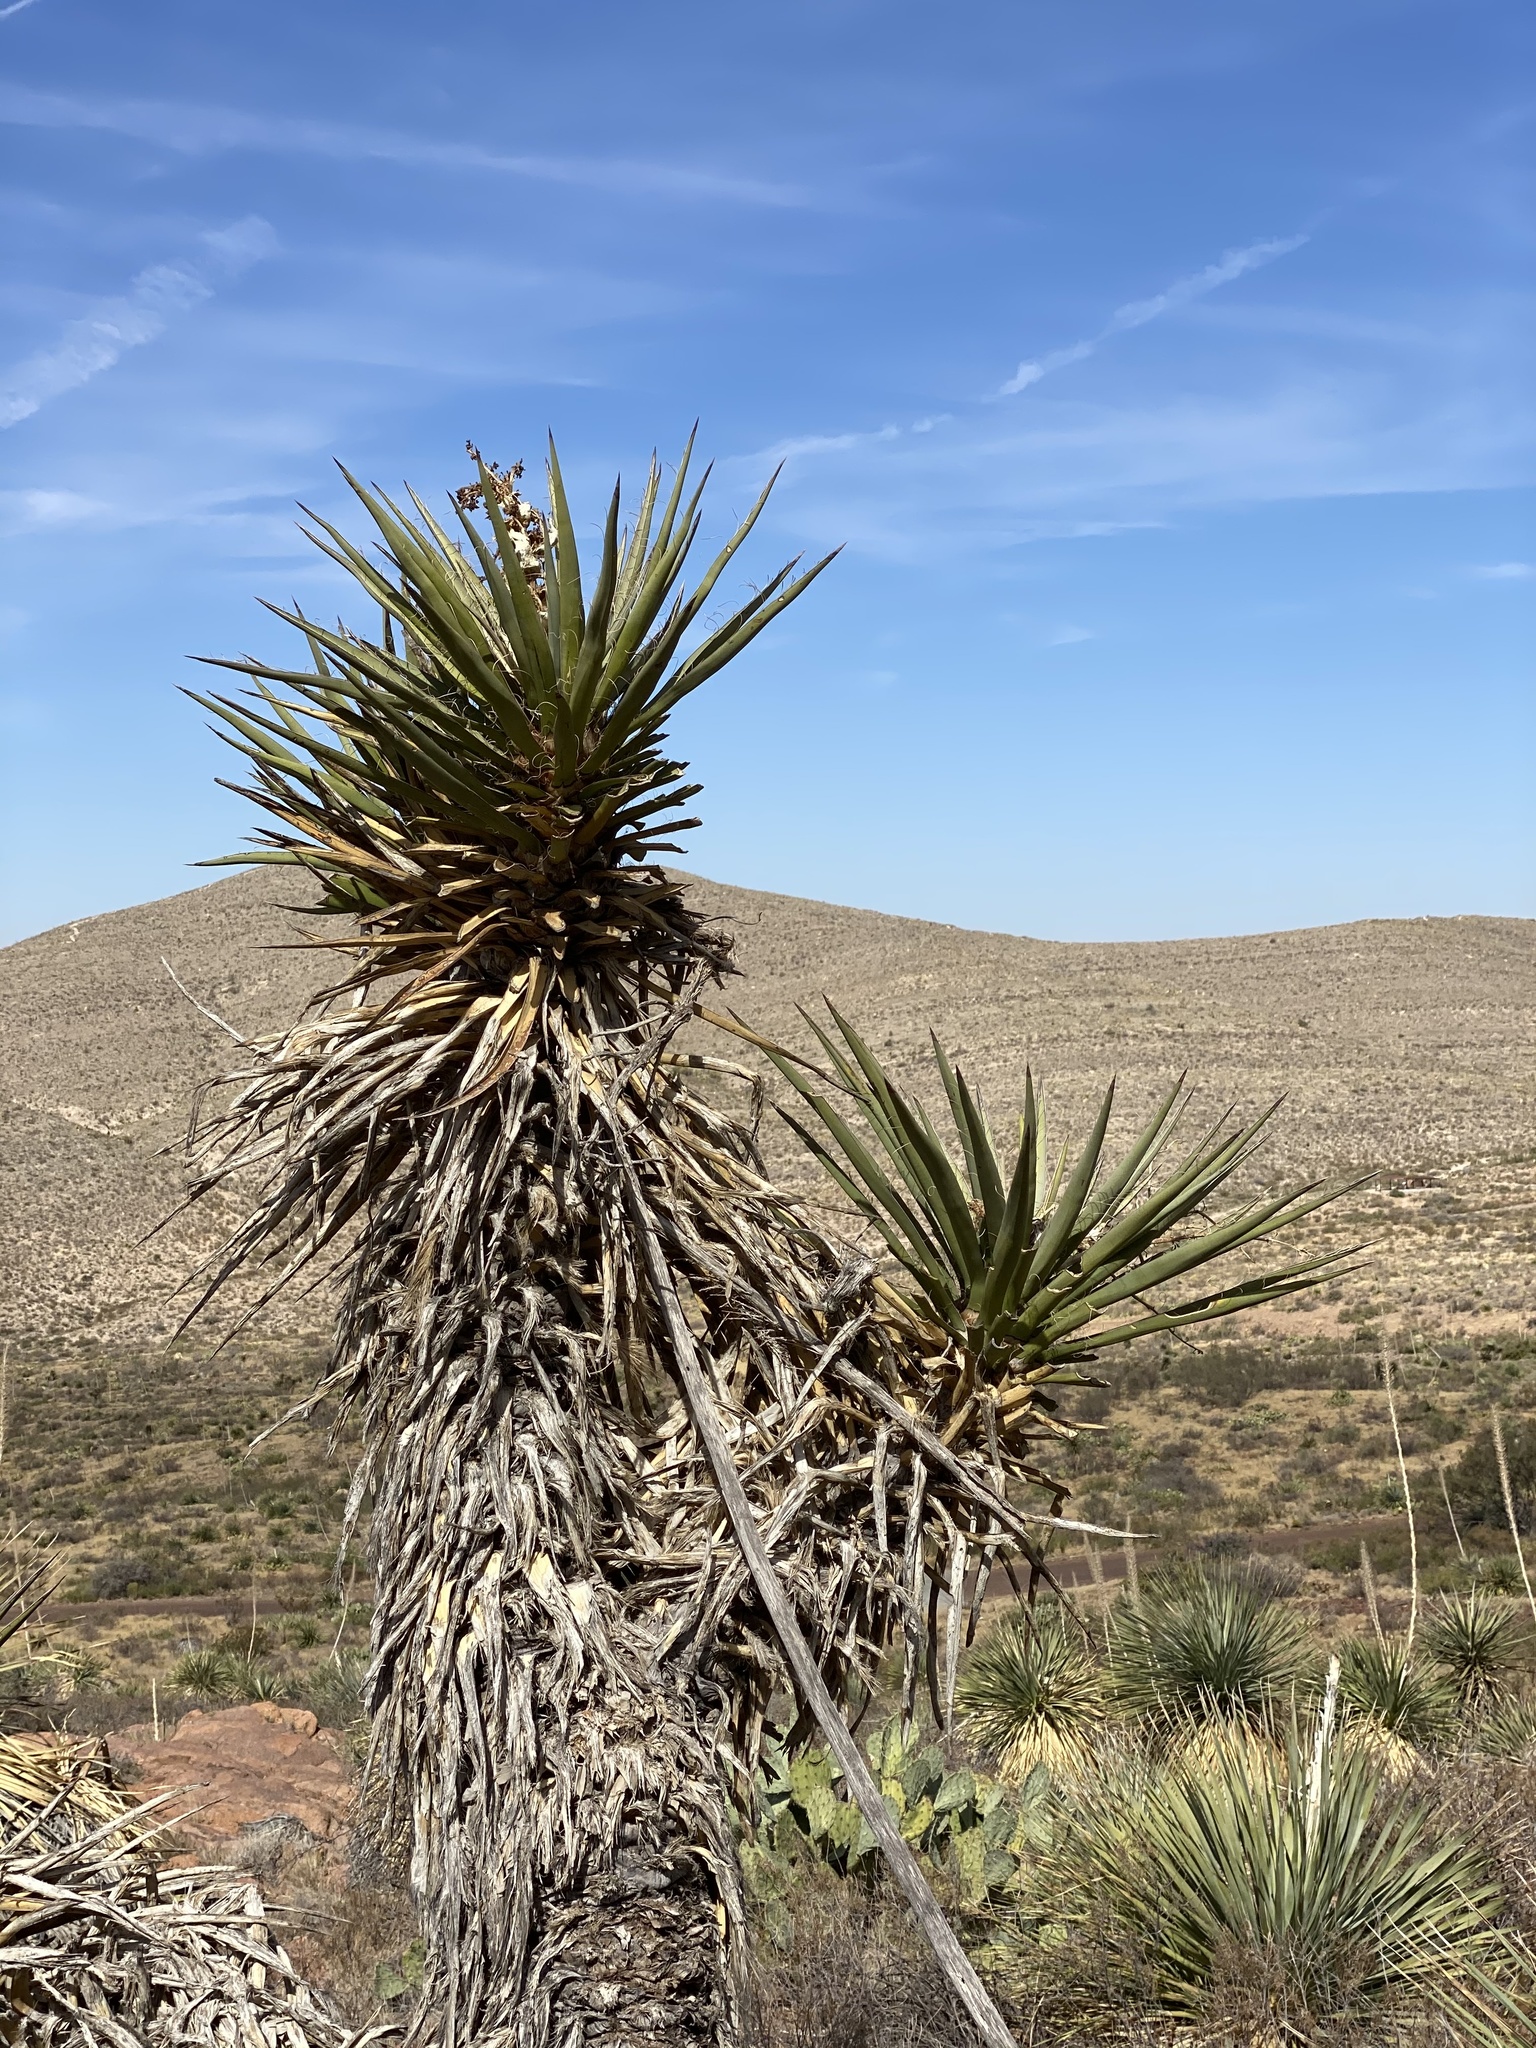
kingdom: Plantae
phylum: Tracheophyta
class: Liliopsida
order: Asparagales
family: Asparagaceae
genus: Yucca
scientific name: Yucca treculiana
